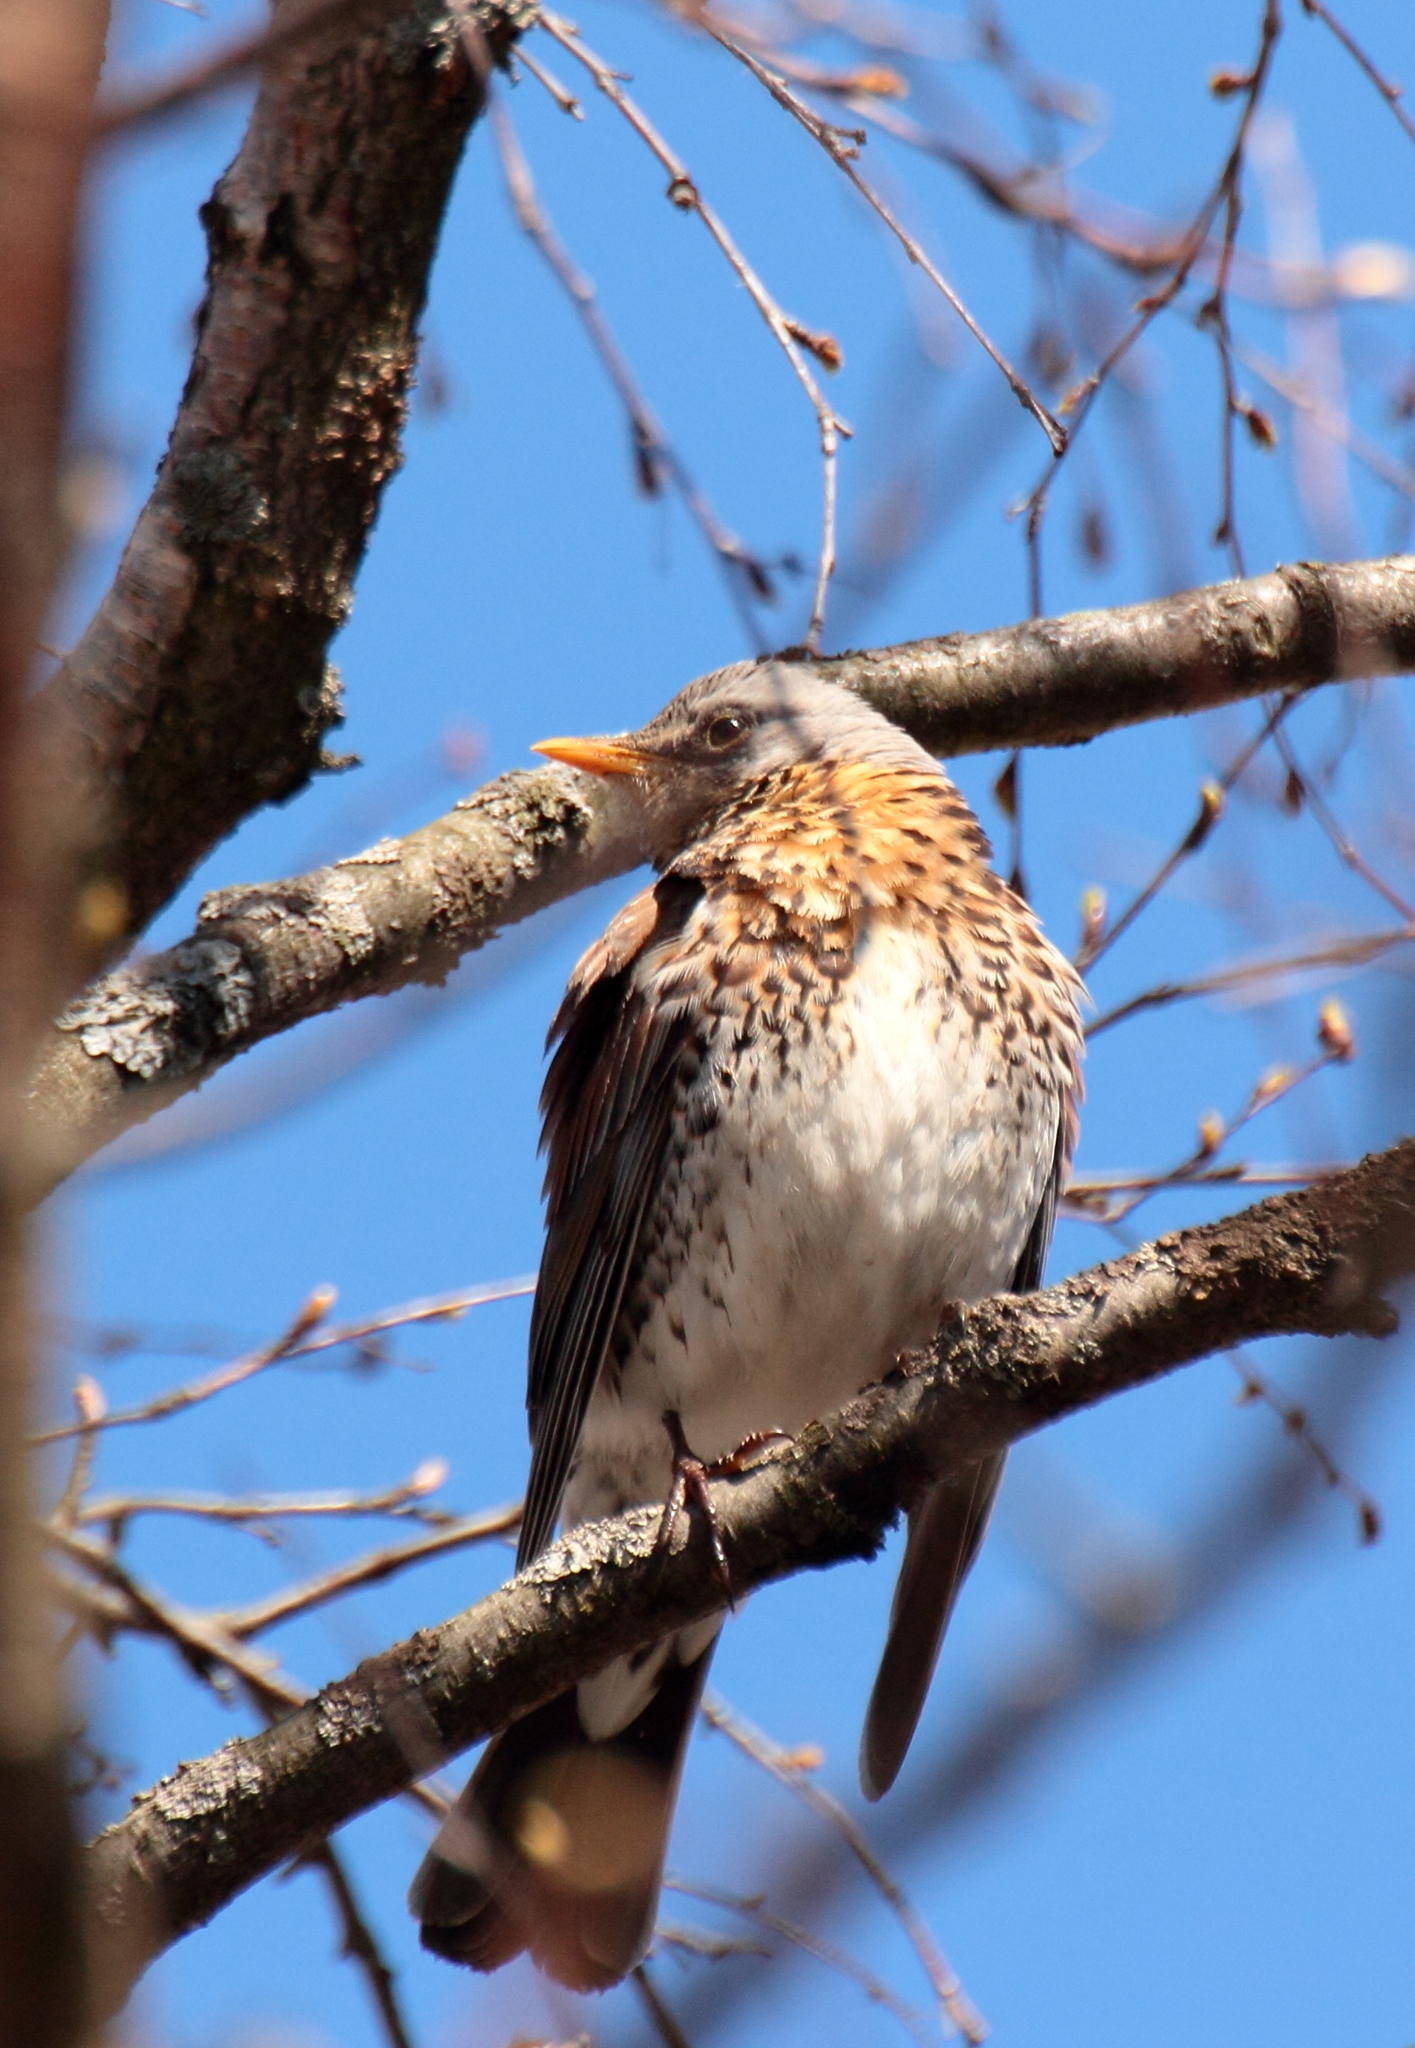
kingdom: Animalia
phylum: Chordata
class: Aves
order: Passeriformes
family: Turdidae
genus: Turdus
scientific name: Turdus pilaris
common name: Fieldfare
